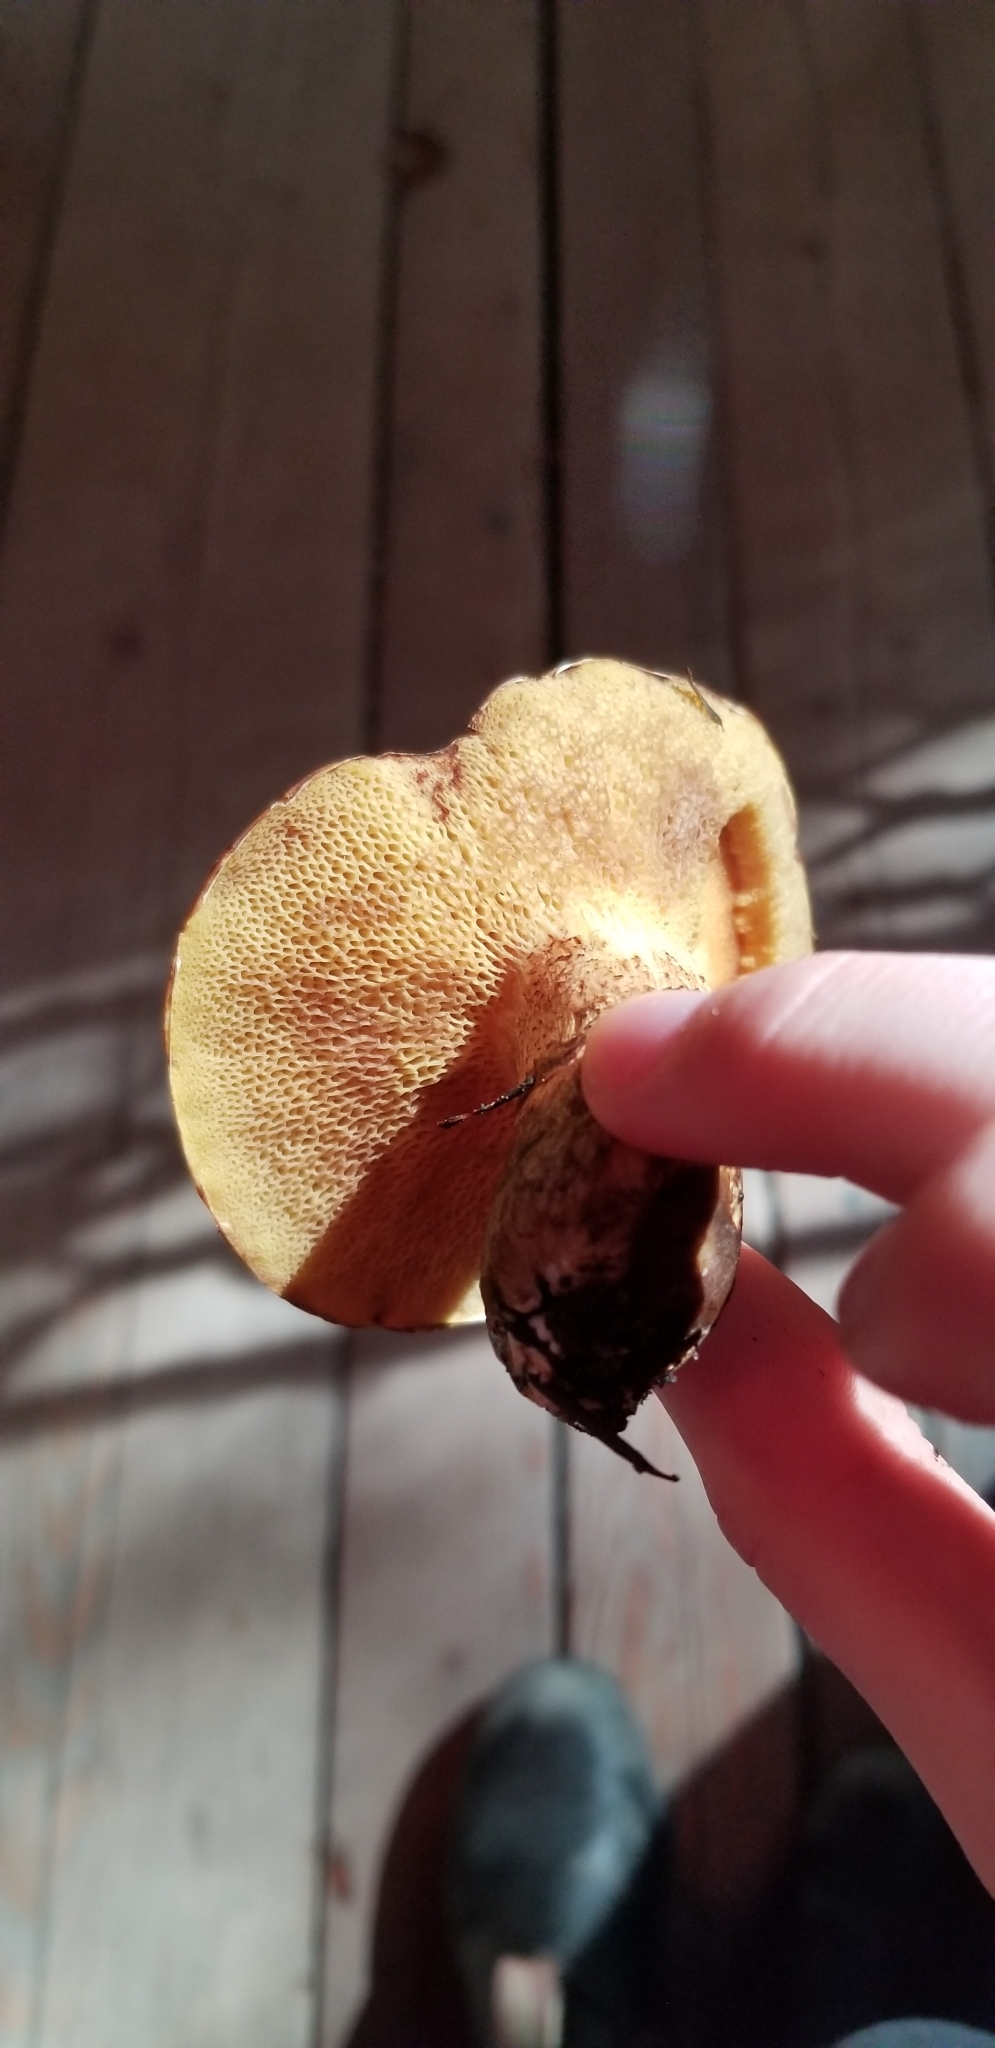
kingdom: Fungi
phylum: Basidiomycota
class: Agaricomycetes
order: Boletales
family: Suillaceae
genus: Suillus
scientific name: Suillus caerulescens
